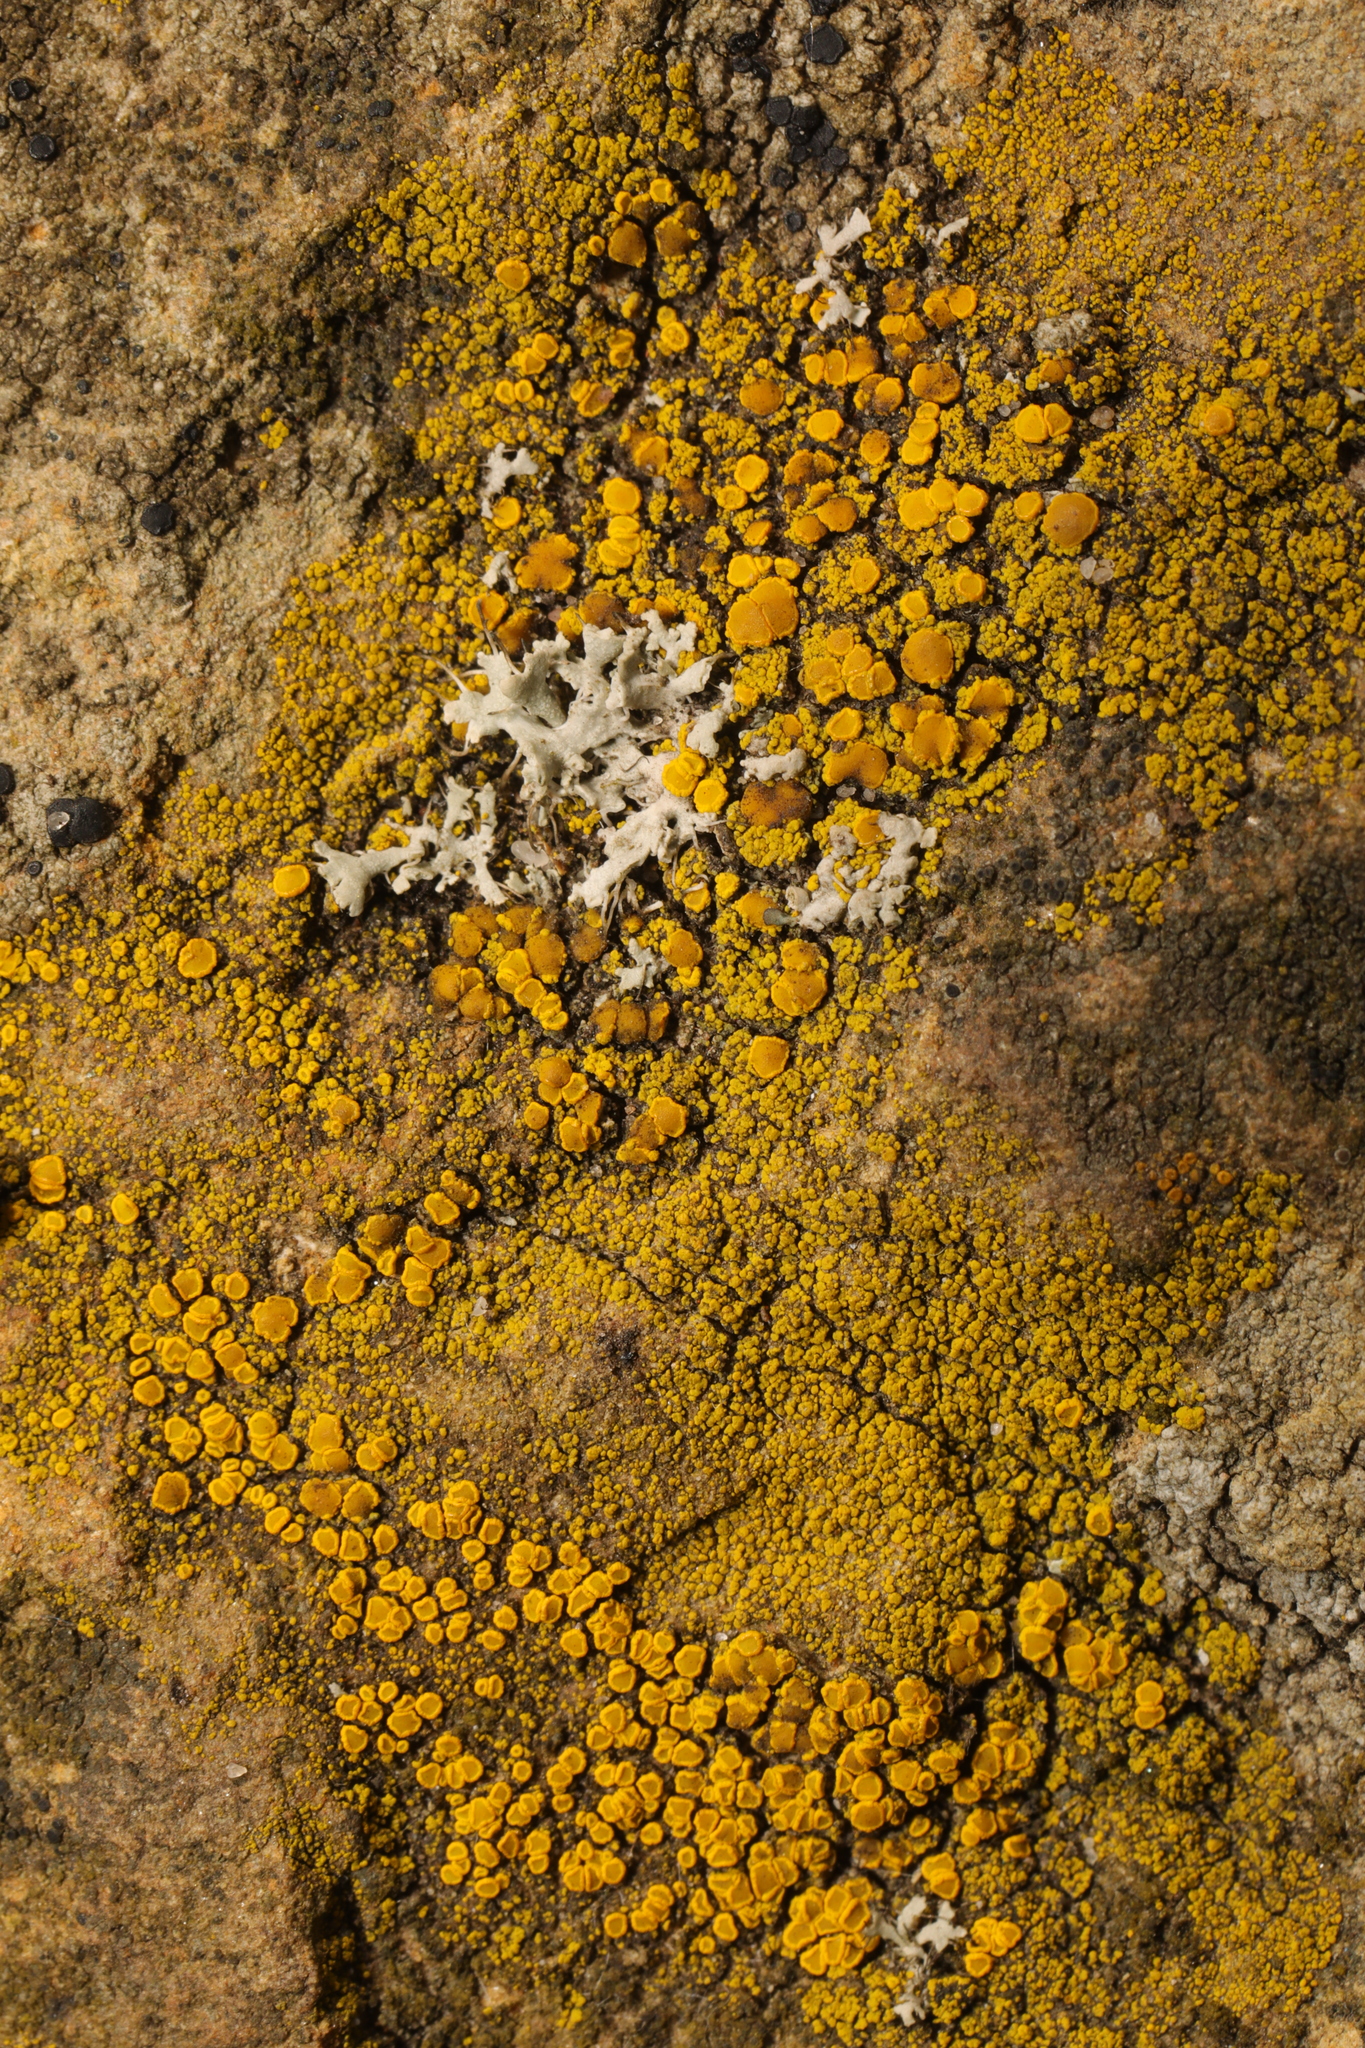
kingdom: Fungi
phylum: Ascomycota
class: Candelariomycetes
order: Candelariales
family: Candelariaceae
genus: Candelariella
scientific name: Candelariella vitellina
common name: Common goldspeck
